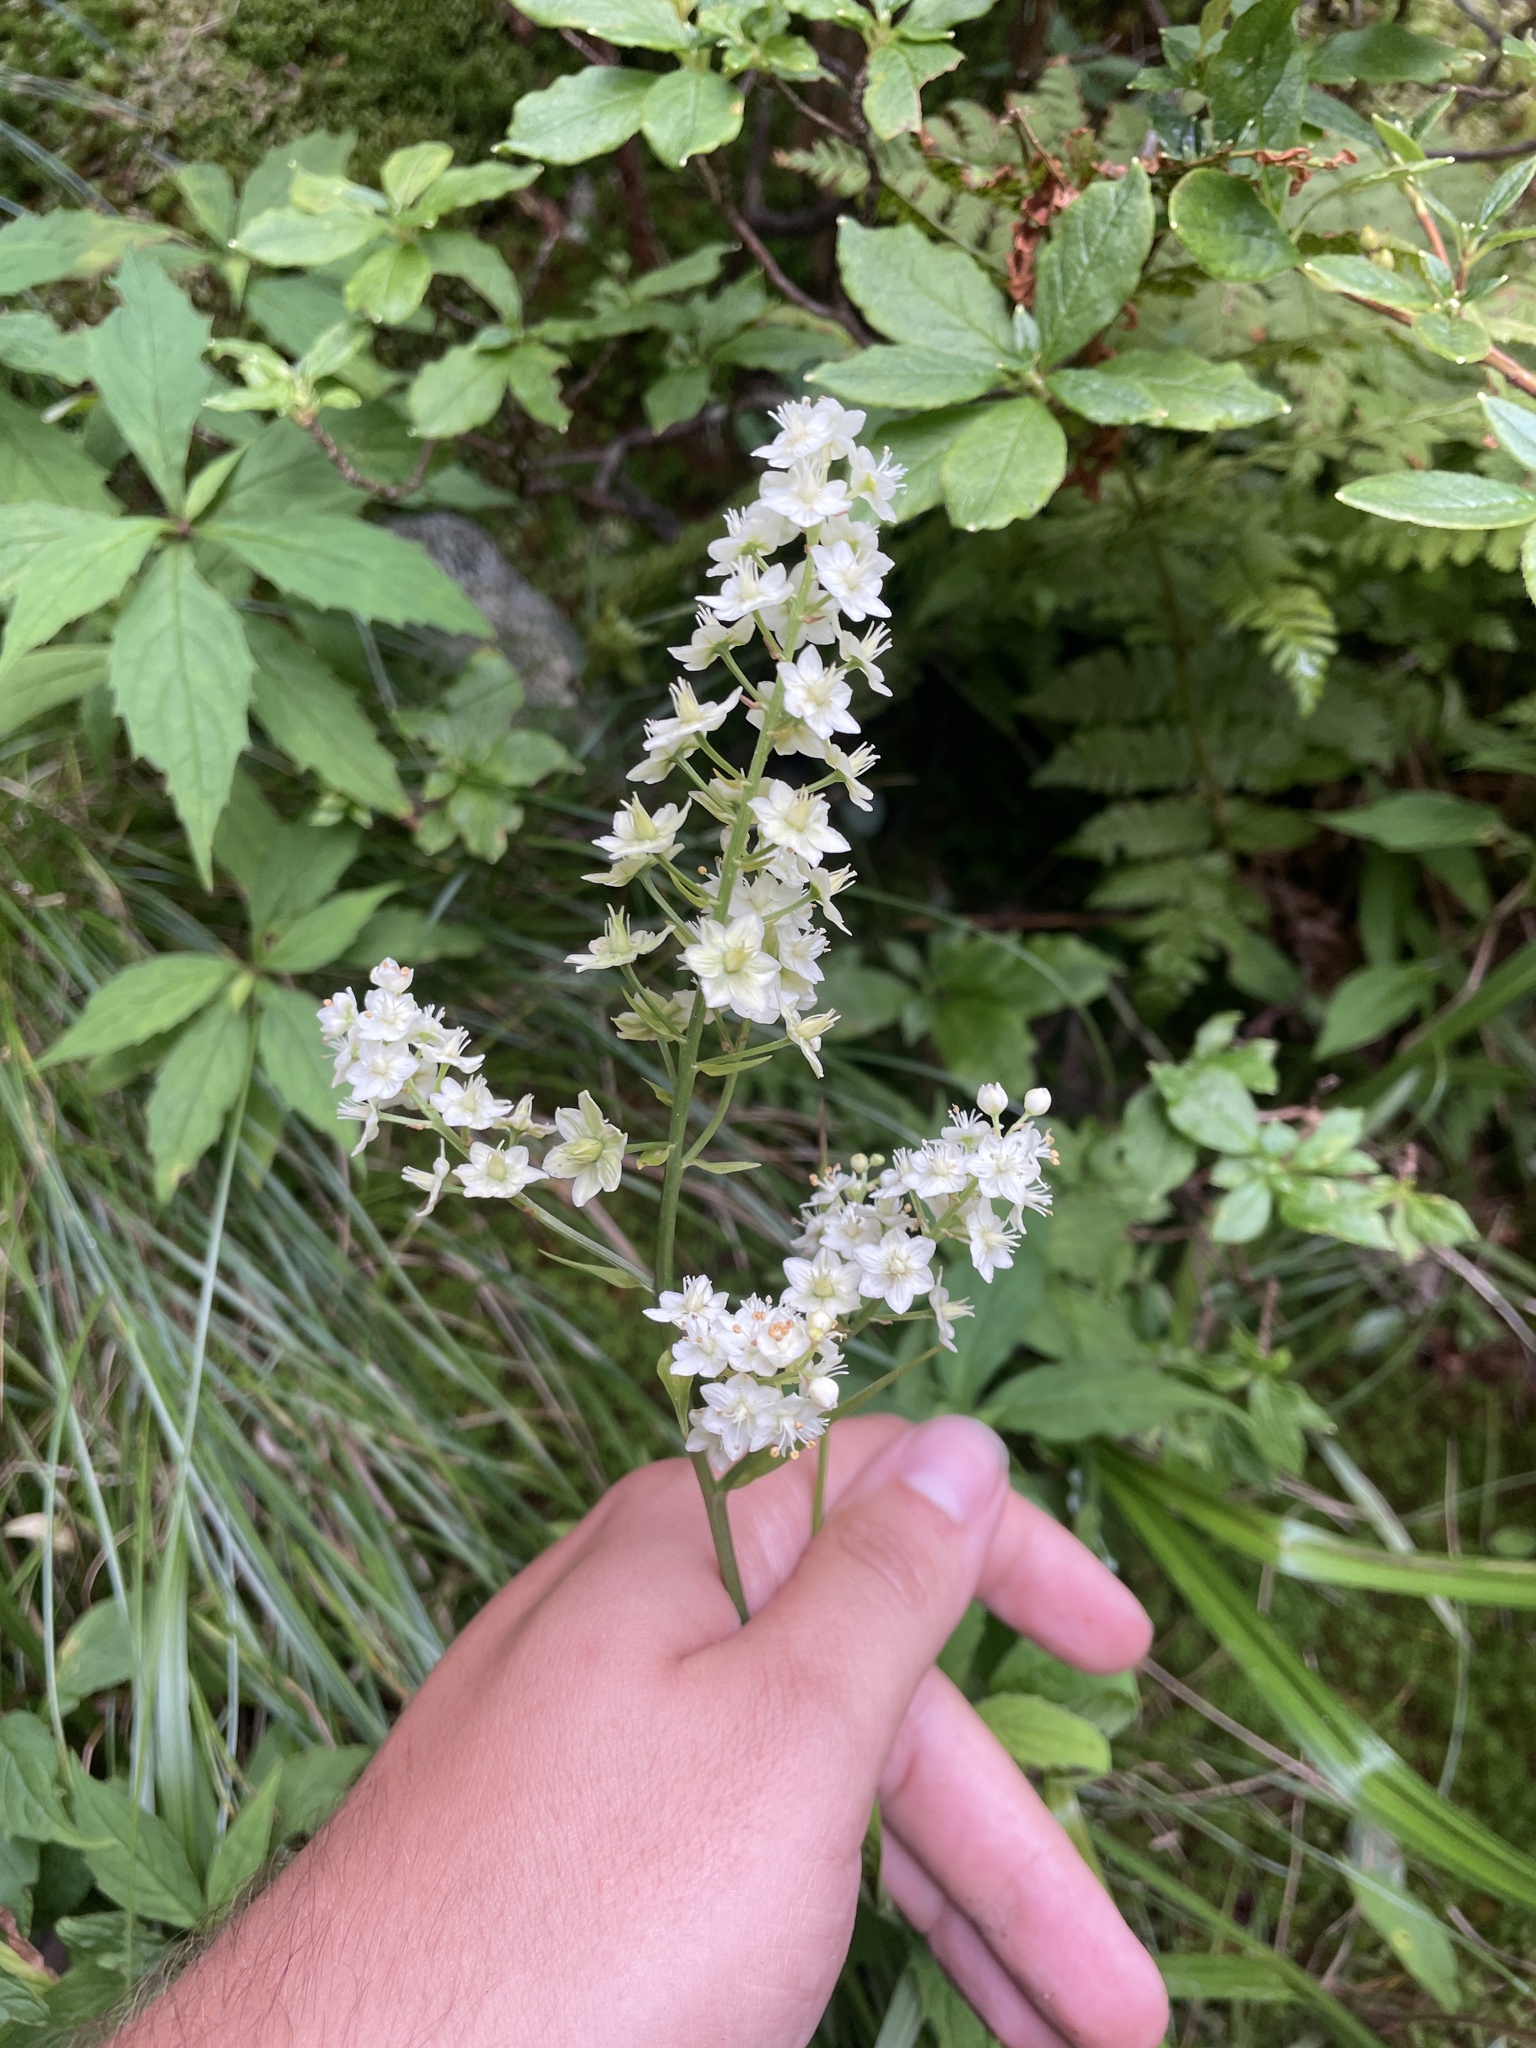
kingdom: Plantae
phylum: Tracheophyta
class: Liliopsida
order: Liliales
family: Melanthiaceae
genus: Stenanthium
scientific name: Stenanthium leimanthoides
